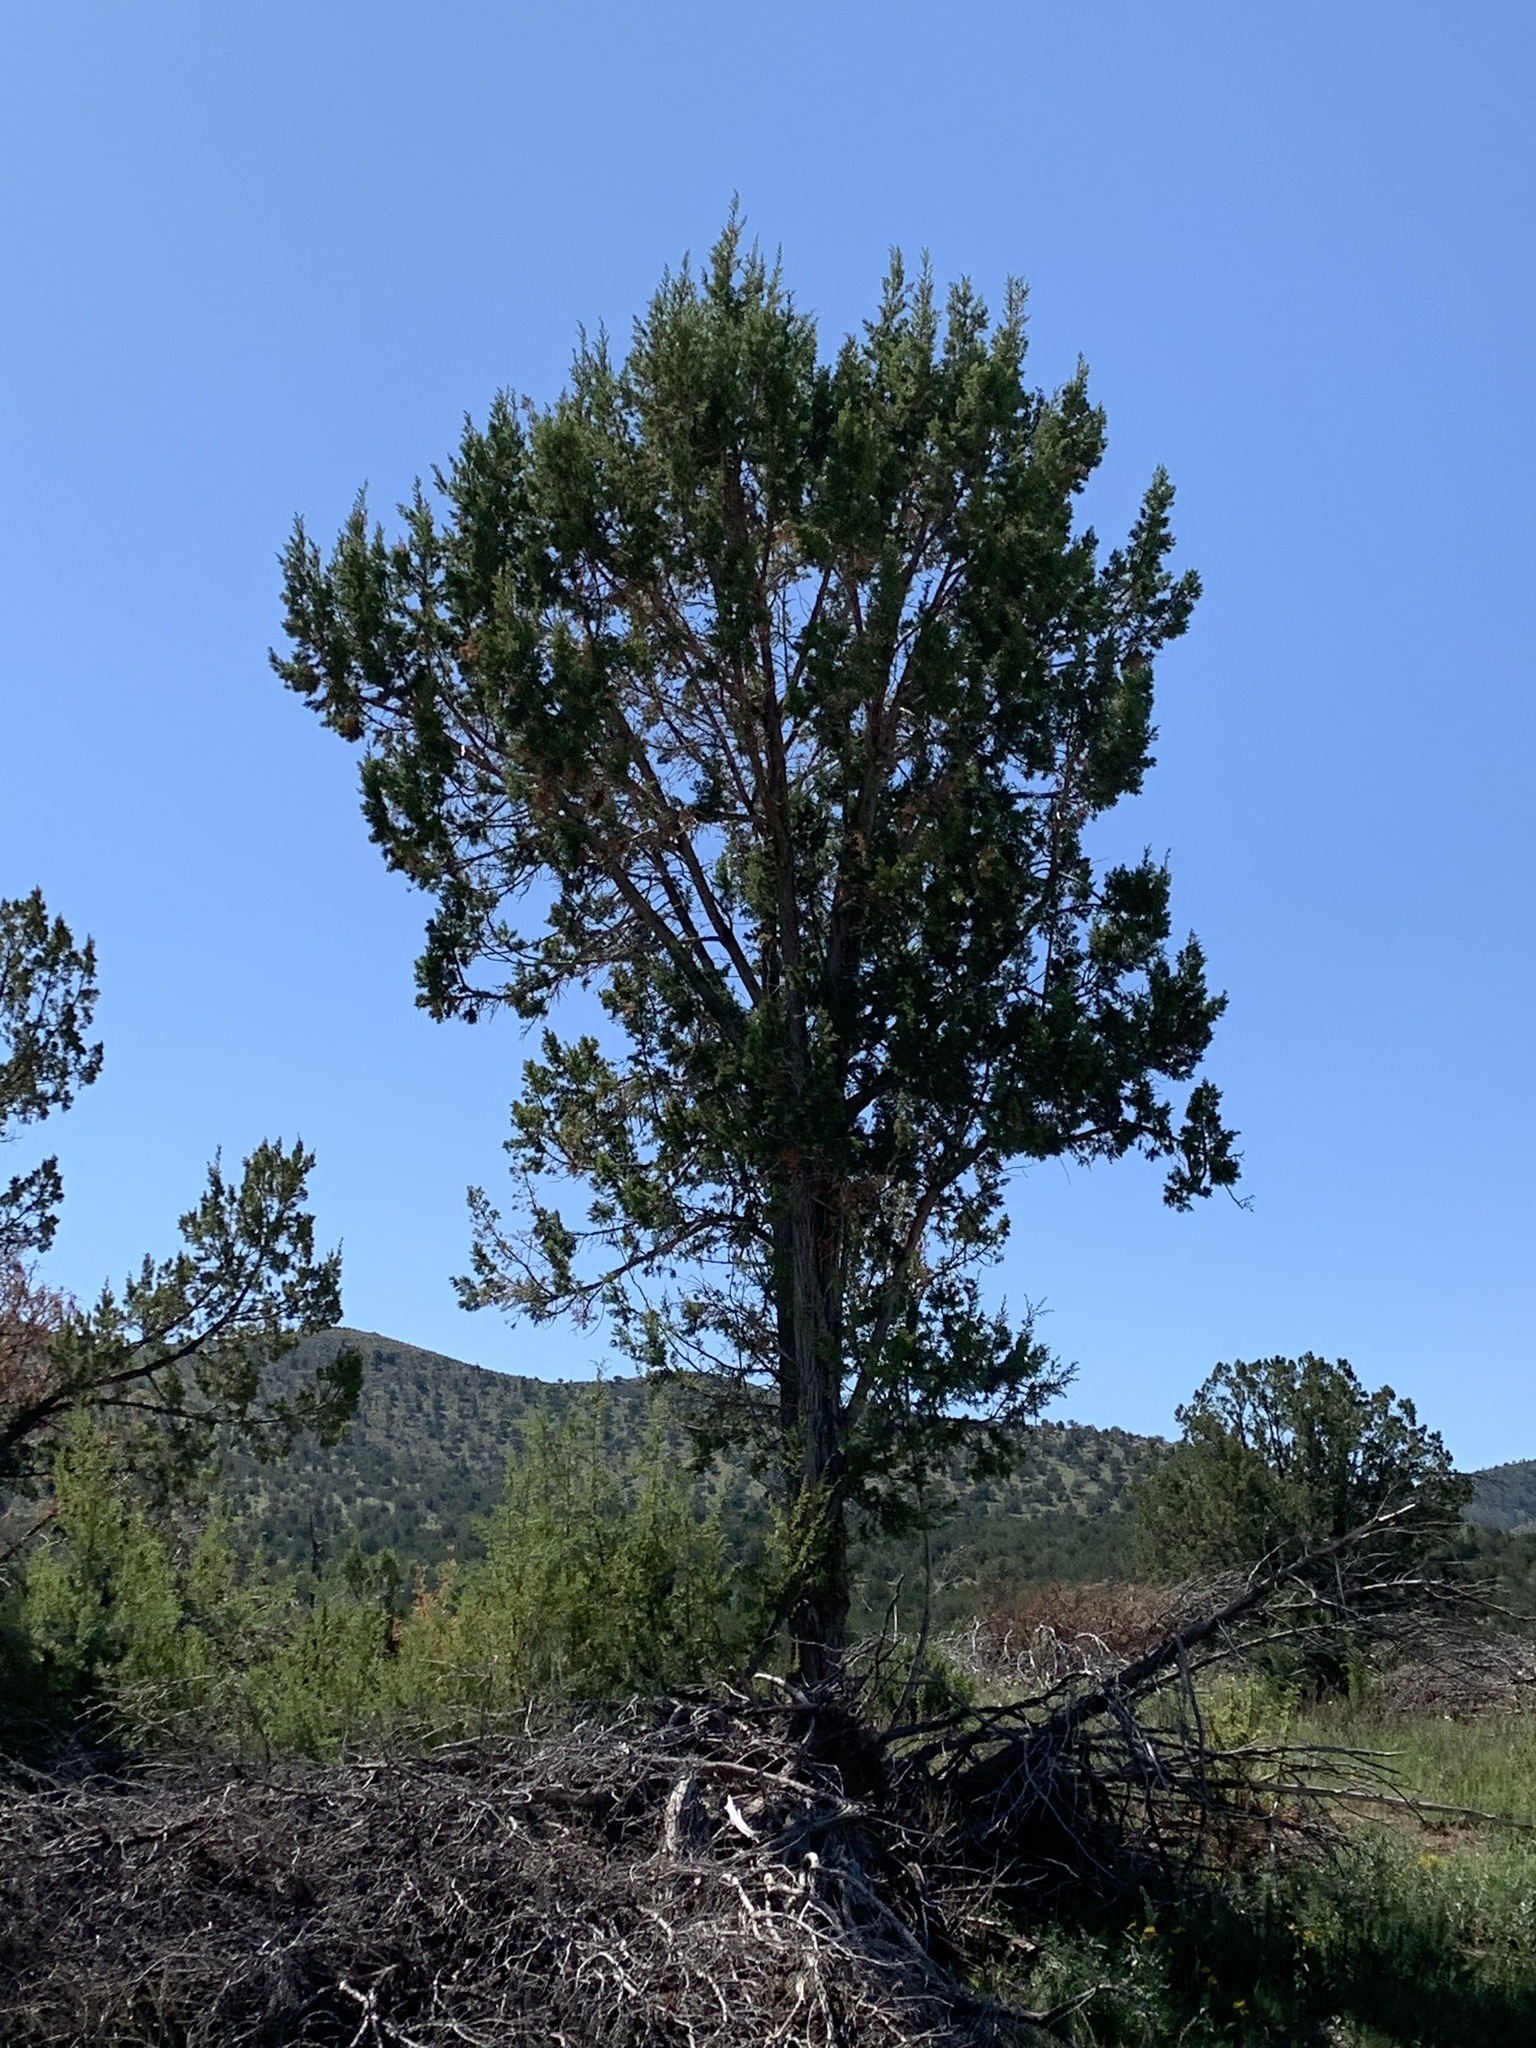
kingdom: Plantae
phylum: Tracheophyta
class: Pinopsida
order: Pinales
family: Cupressaceae
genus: Juniperus
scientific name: Juniperus monosperma
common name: One-seed juniper
